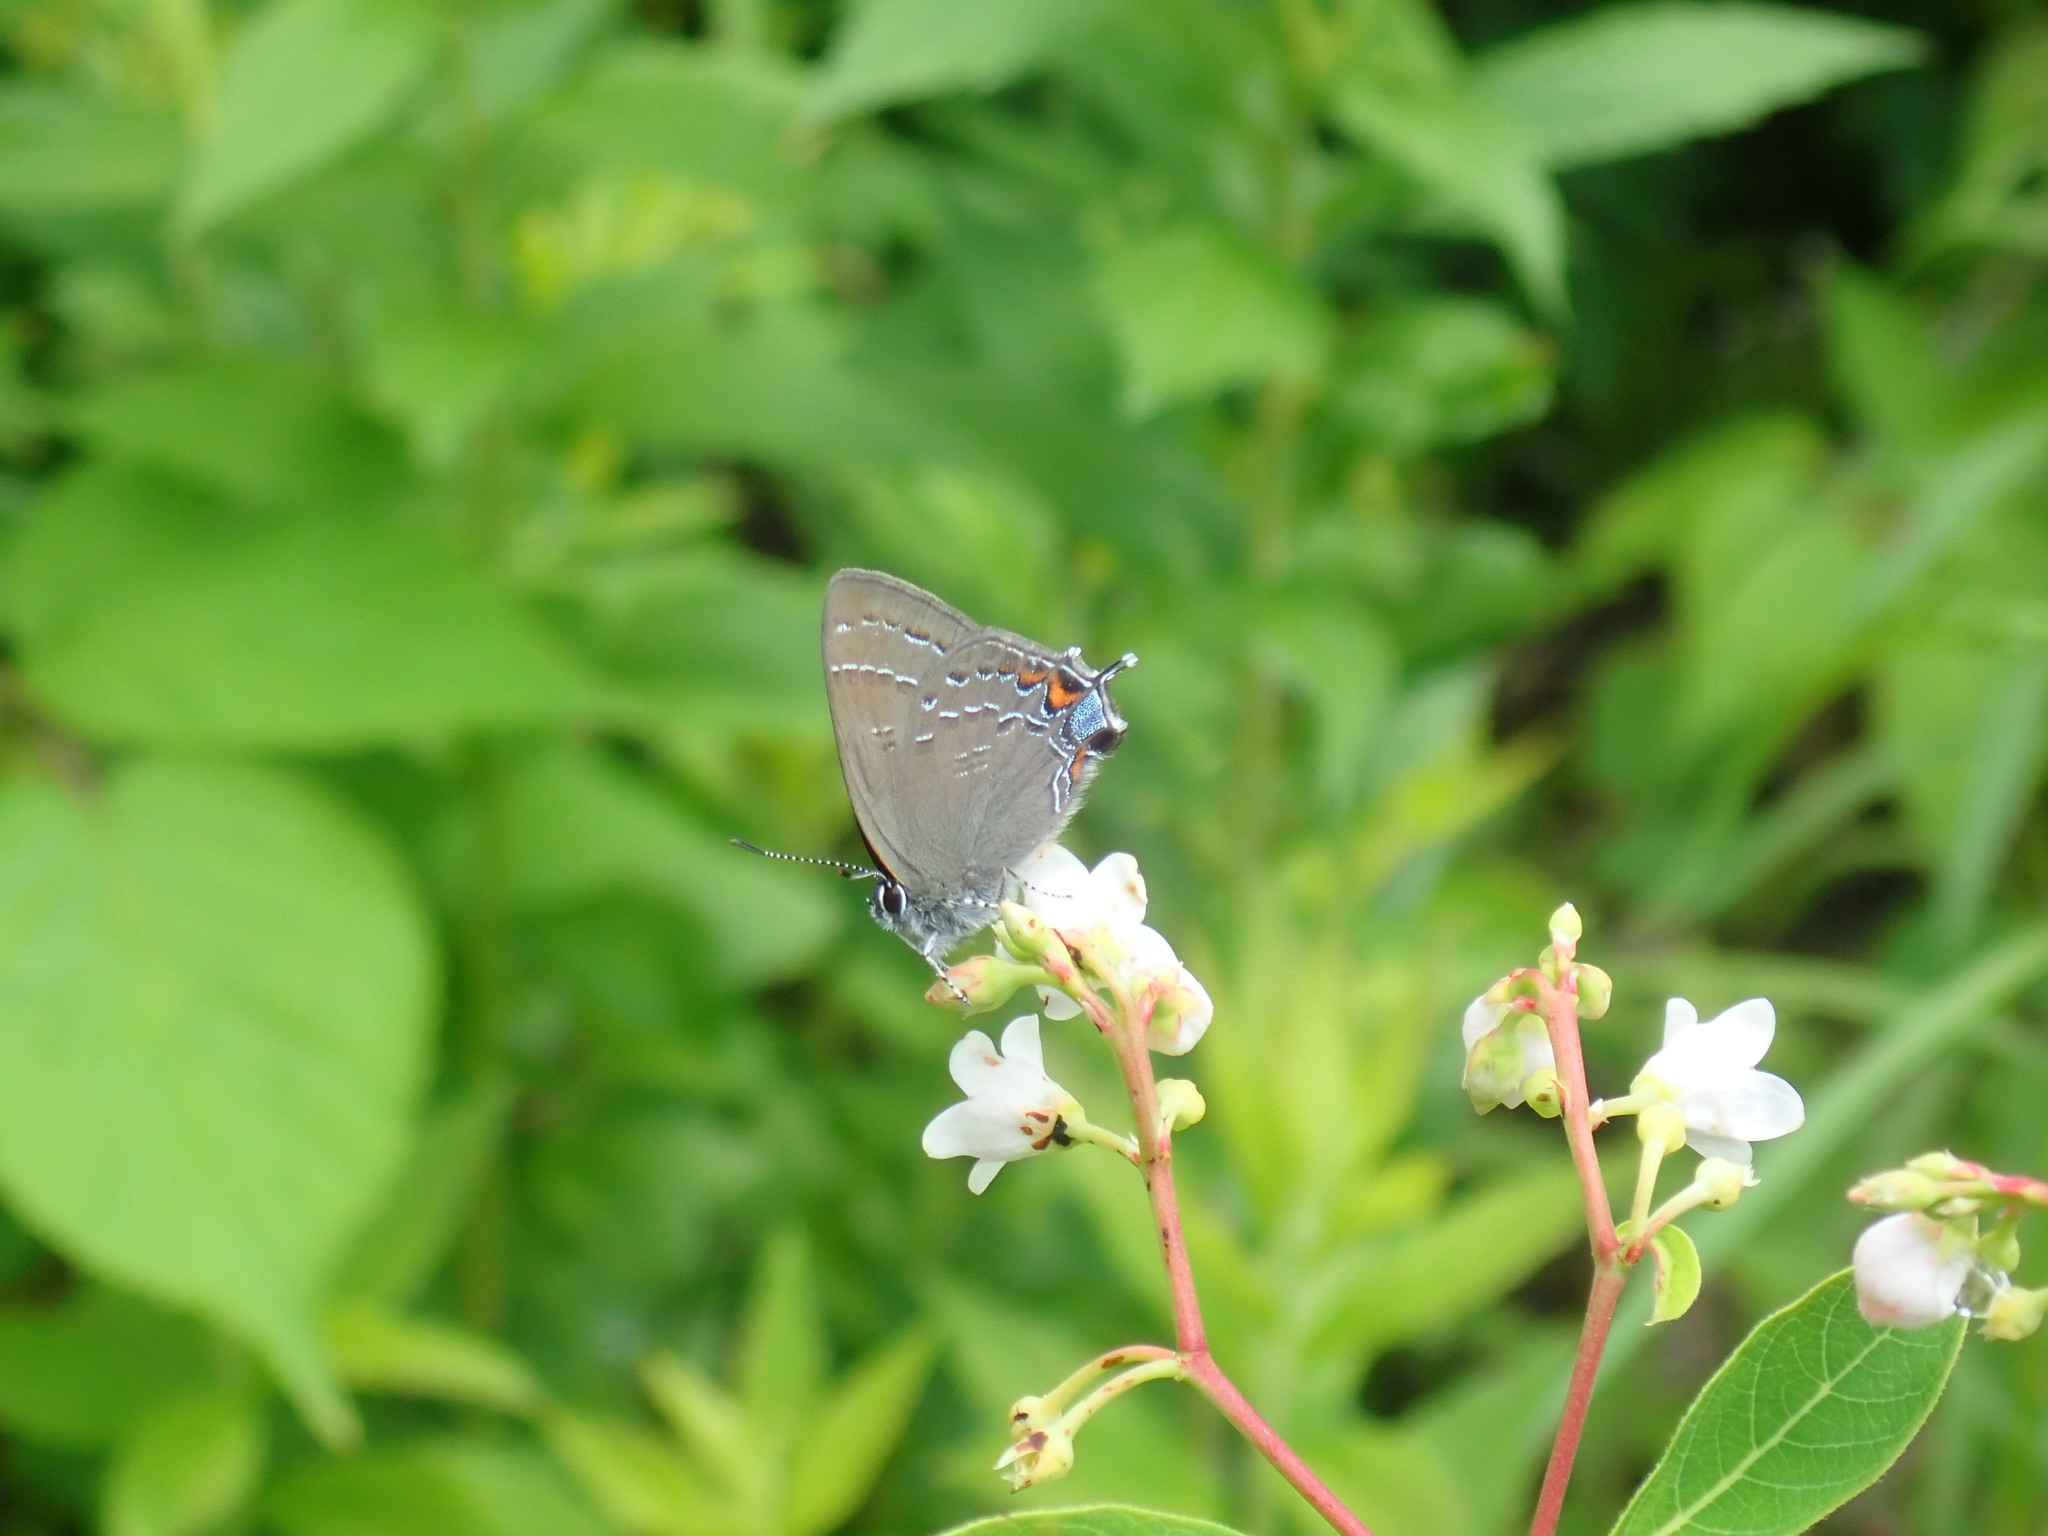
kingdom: Animalia
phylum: Arthropoda
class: Insecta
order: Lepidoptera
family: Lycaenidae
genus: Satyrium
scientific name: Satyrium calanus
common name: Banded hairstreak
